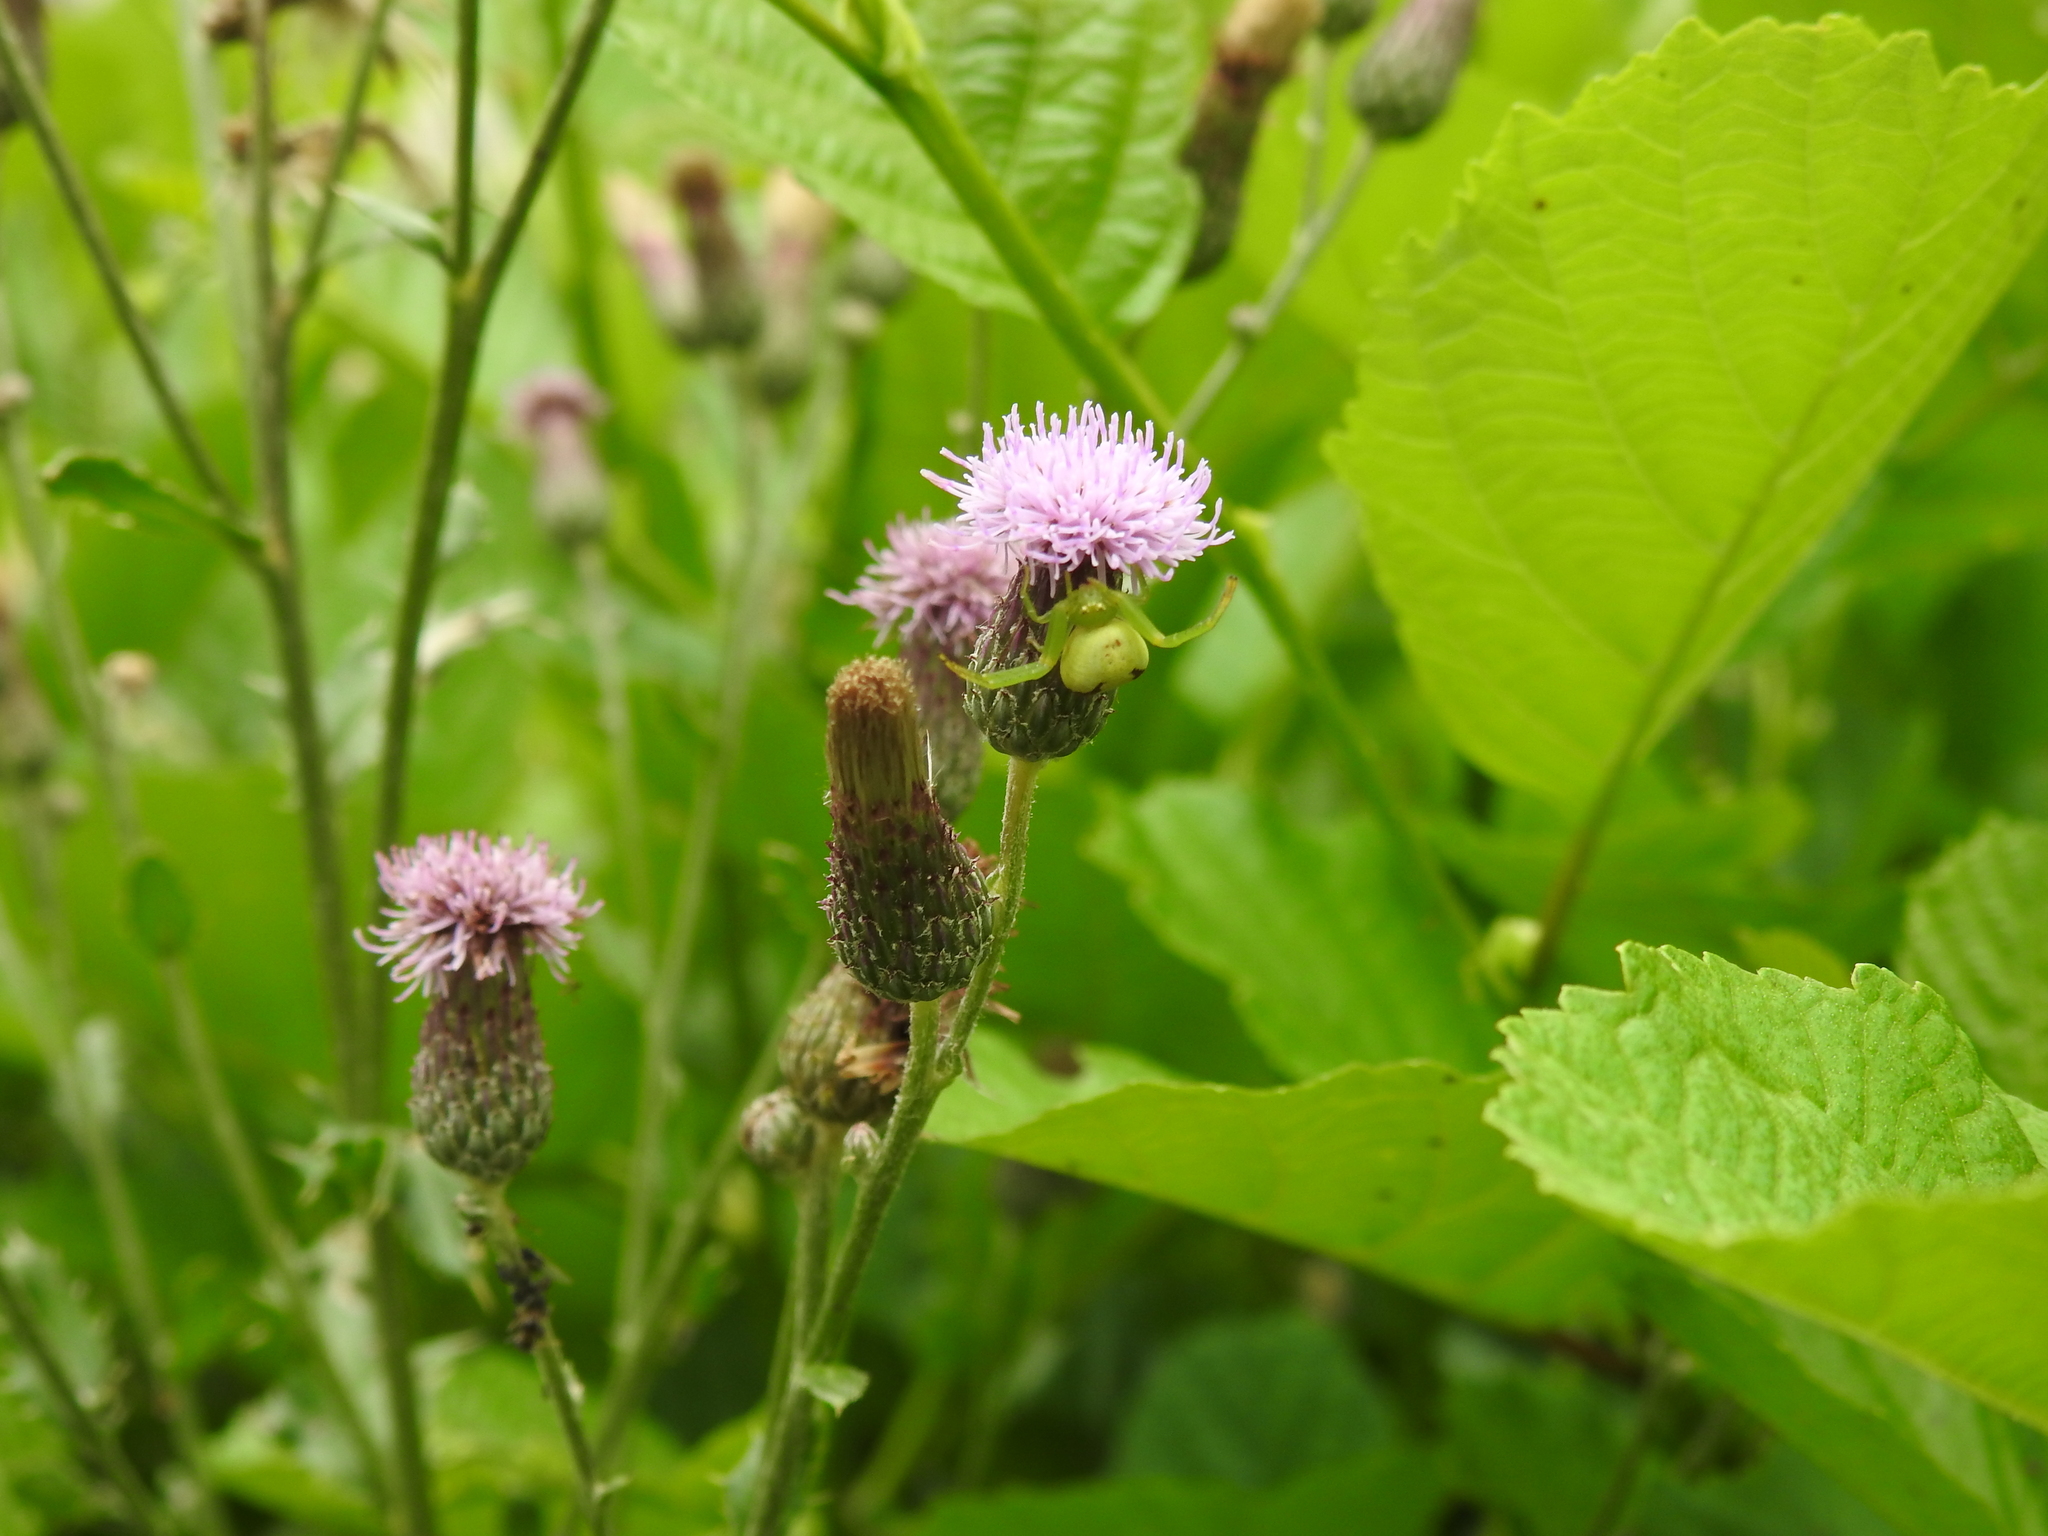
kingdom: Animalia
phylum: Arthropoda
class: Arachnida
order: Araneae
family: Thomisidae
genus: Ebrechtella
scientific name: Ebrechtella tricuspidata
